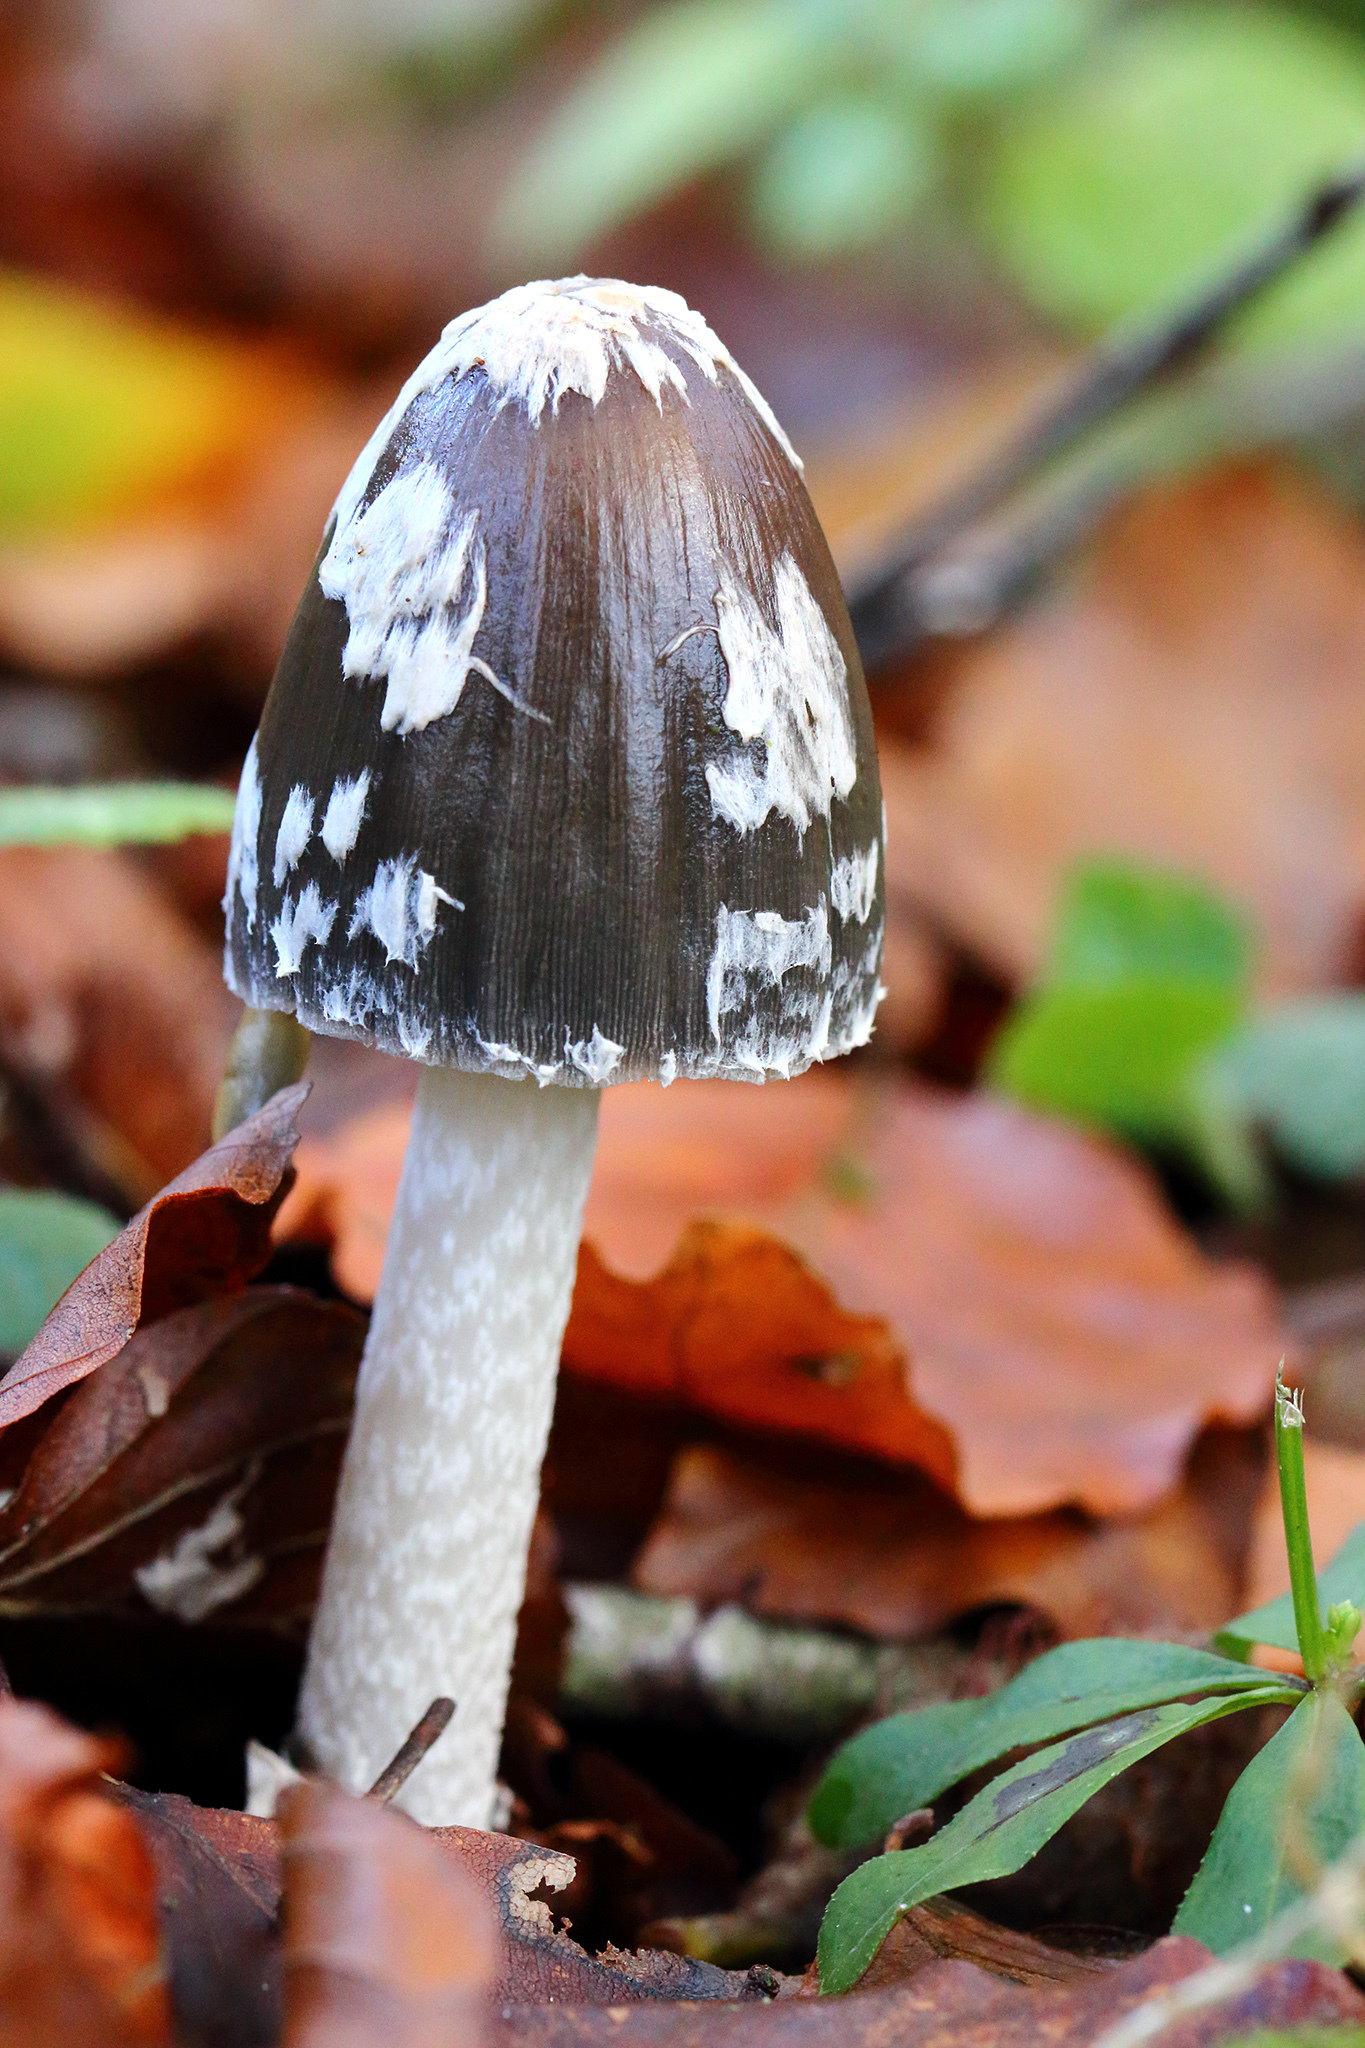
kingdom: Fungi
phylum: Basidiomycota
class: Agaricomycetes
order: Agaricales
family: Psathyrellaceae
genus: Coprinopsis
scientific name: Coprinopsis picacea
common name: Magpie inkcap
